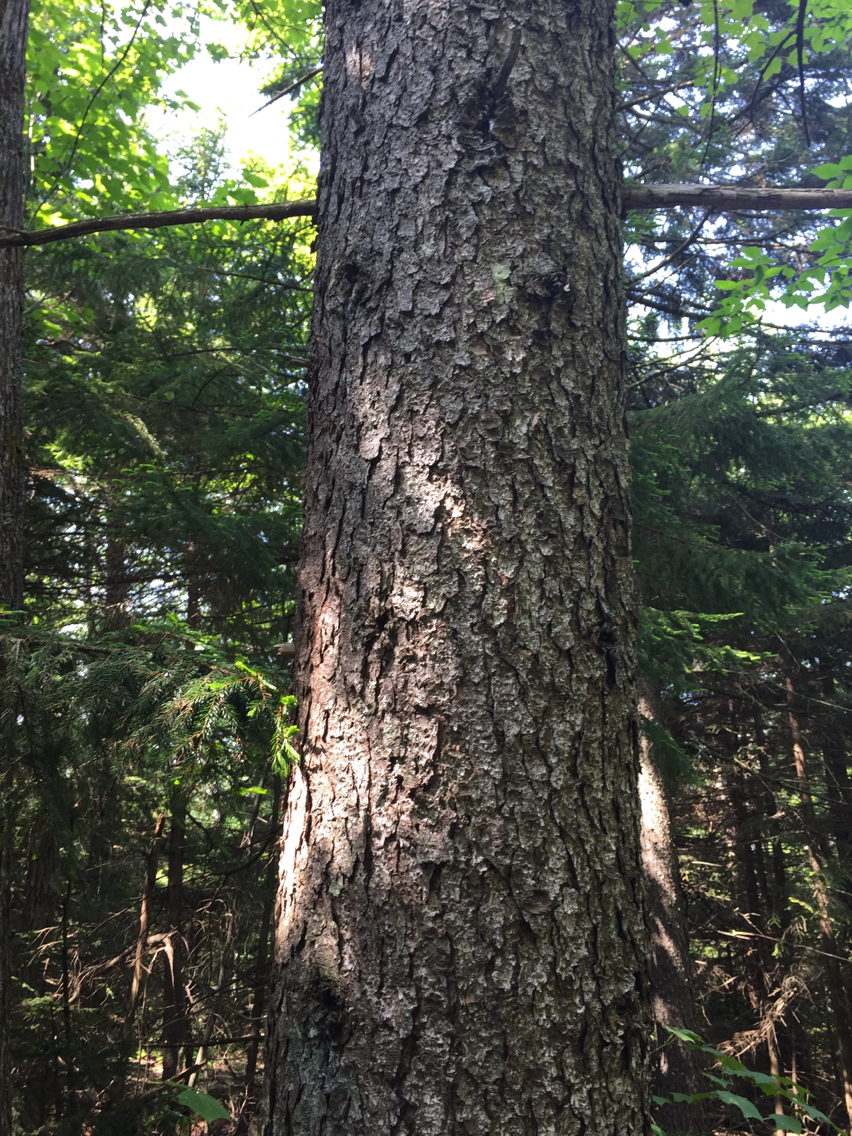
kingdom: Plantae
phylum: Tracheophyta
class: Pinopsida
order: Pinales
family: Pinaceae
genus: Picea
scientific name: Picea rubens
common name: Red spruce
